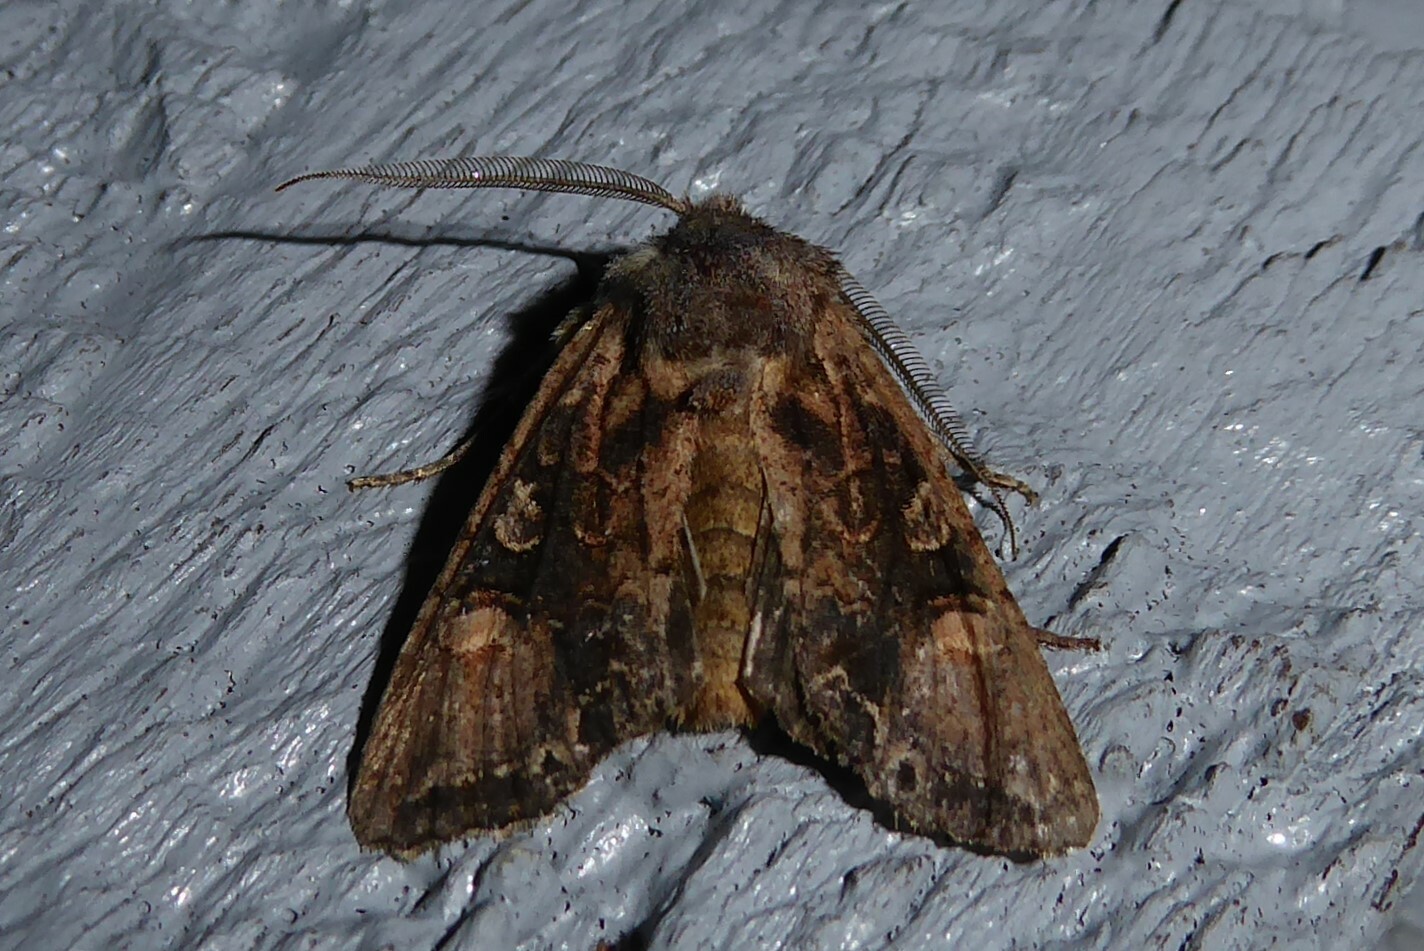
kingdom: Animalia
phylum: Arthropoda
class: Insecta
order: Lepidoptera
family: Noctuidae
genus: Ichneutica
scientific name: Ichneutica
